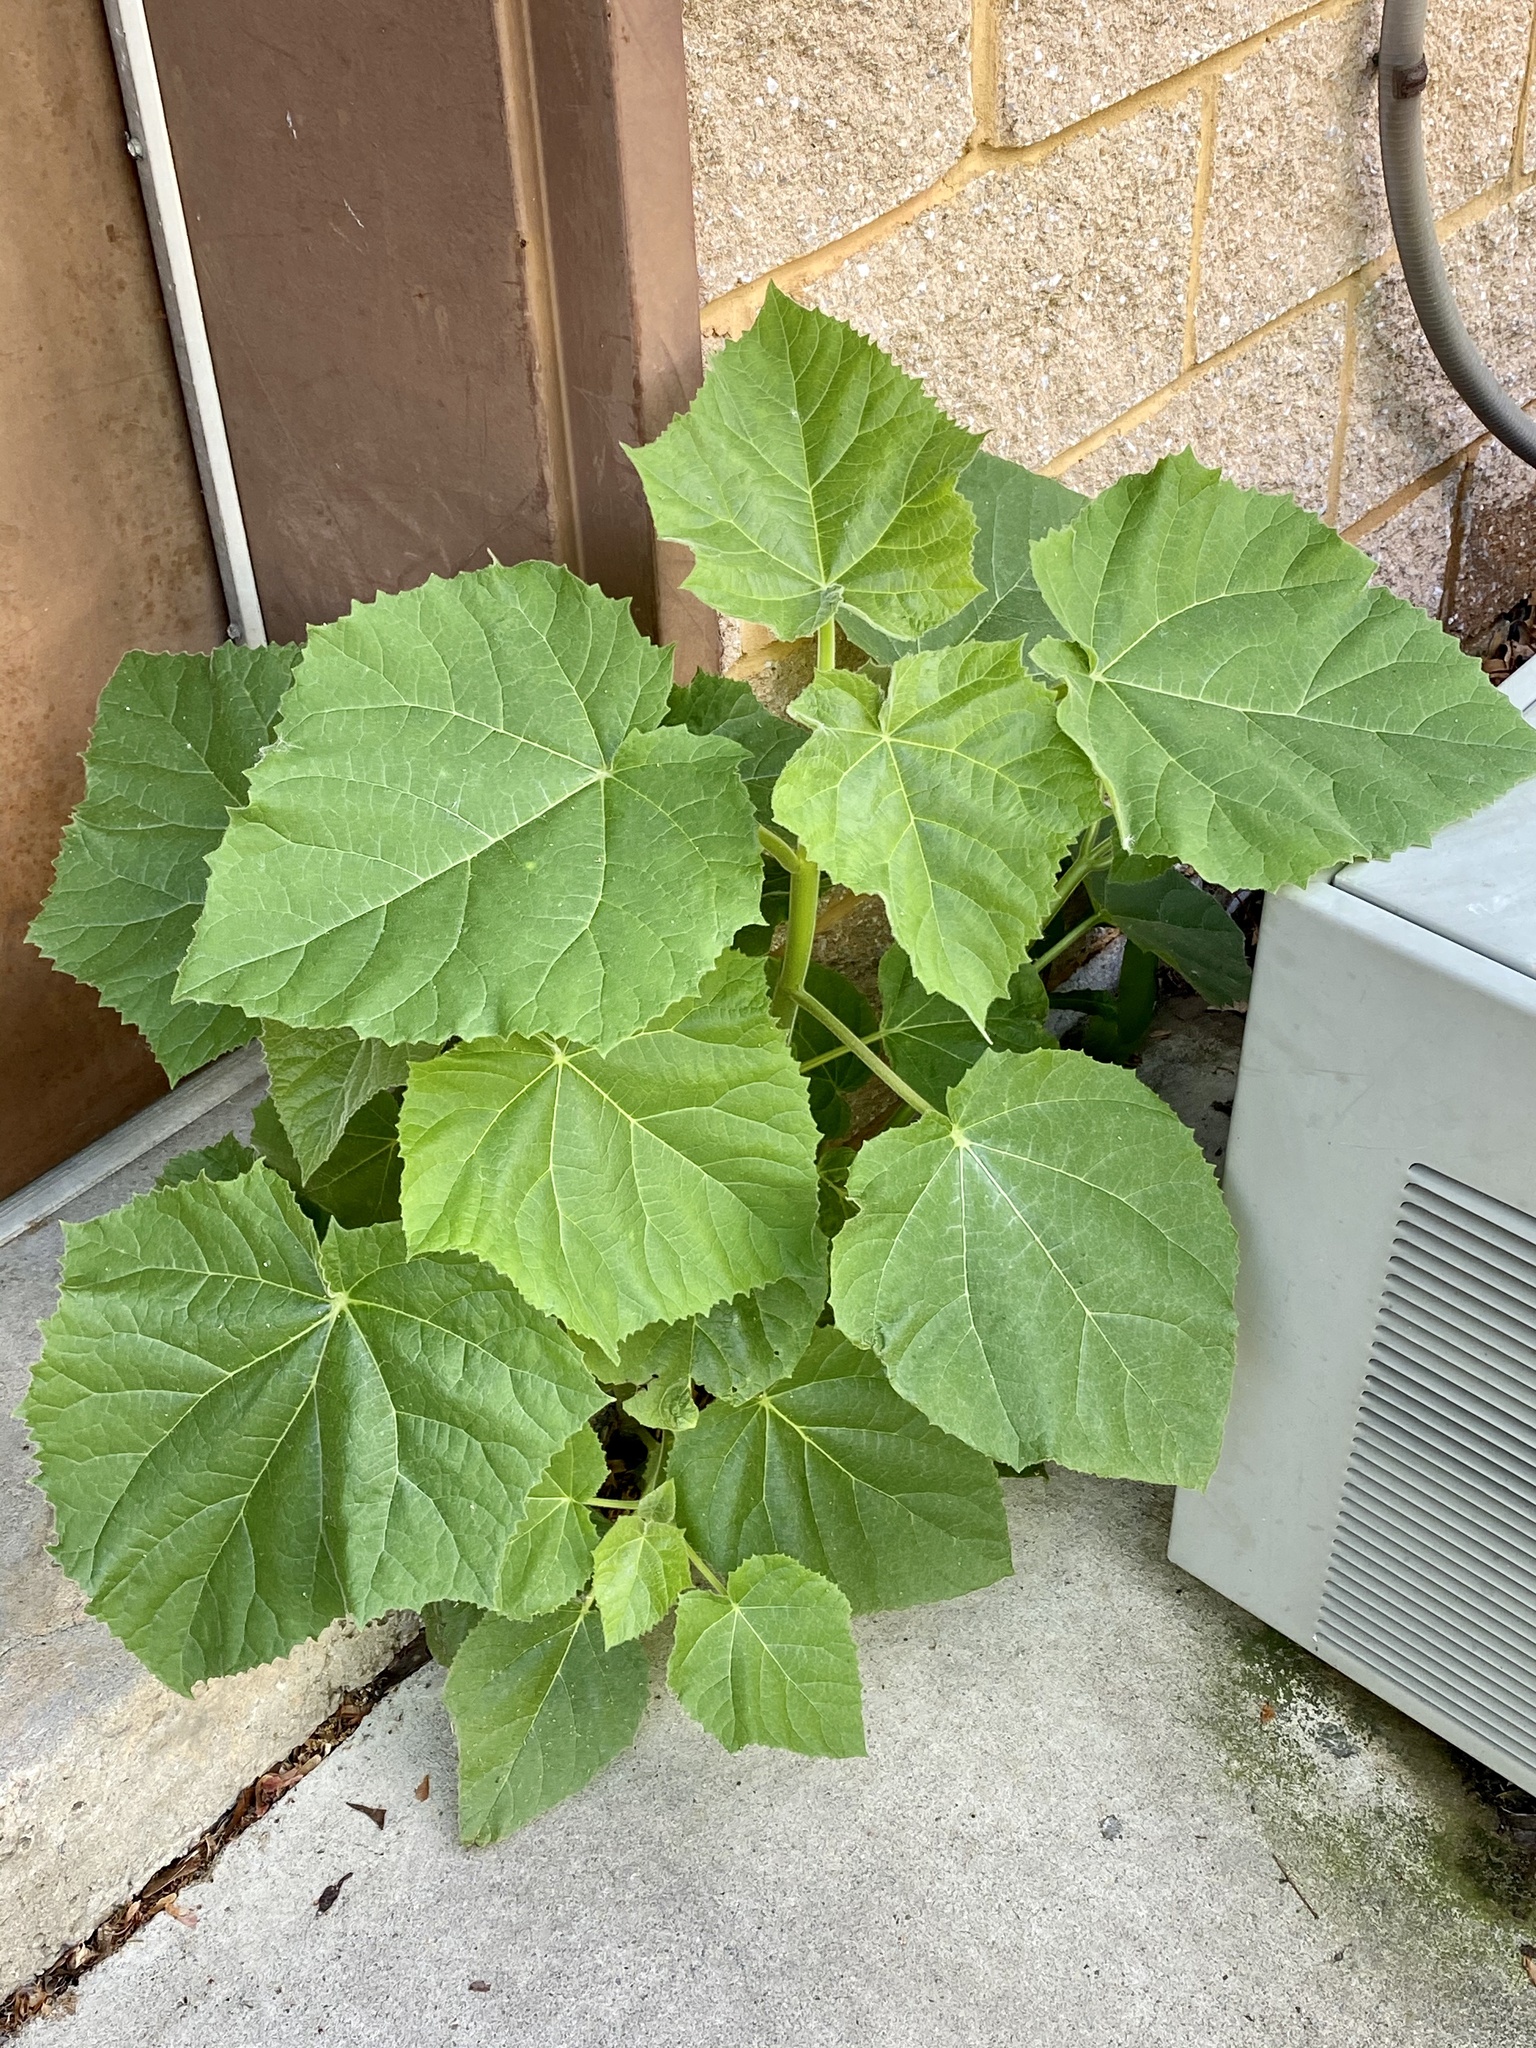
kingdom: Plantae
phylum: Tracheophyta
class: Magnoliopsida
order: Lamiales
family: Paulowniaceae
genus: Paulownia
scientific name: Paulownia tomentosa
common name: Foxglove-tree
